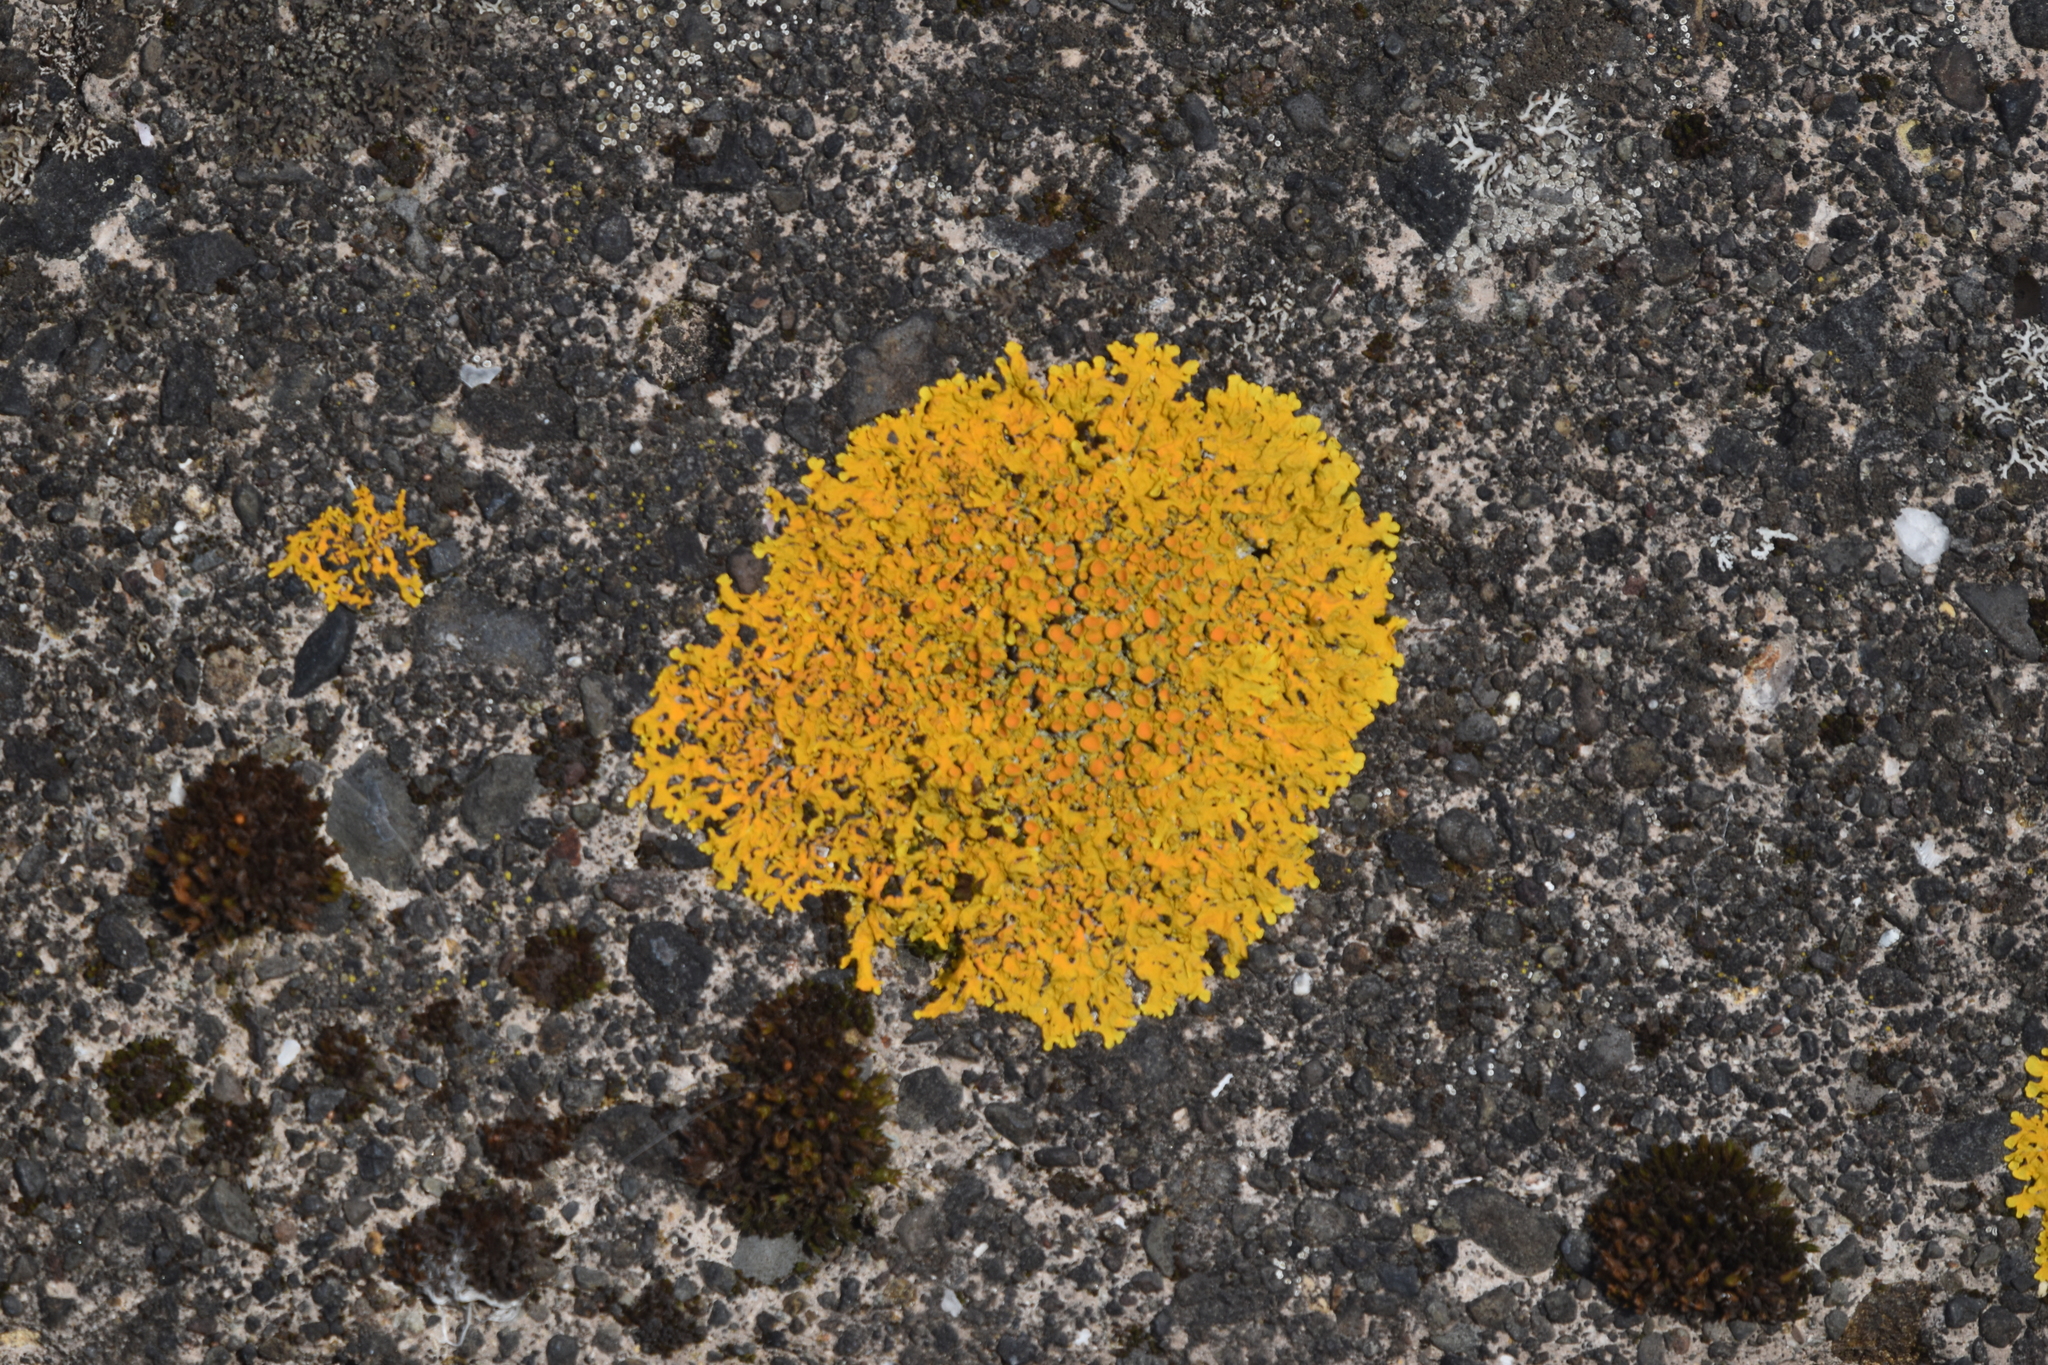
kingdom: Fungi
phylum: Ascomycota
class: Lecanoromycetes
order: Teloschistales
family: Teloschistaceae
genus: Xanthoria
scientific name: Xanthoria parietina
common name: Common orange lichen
